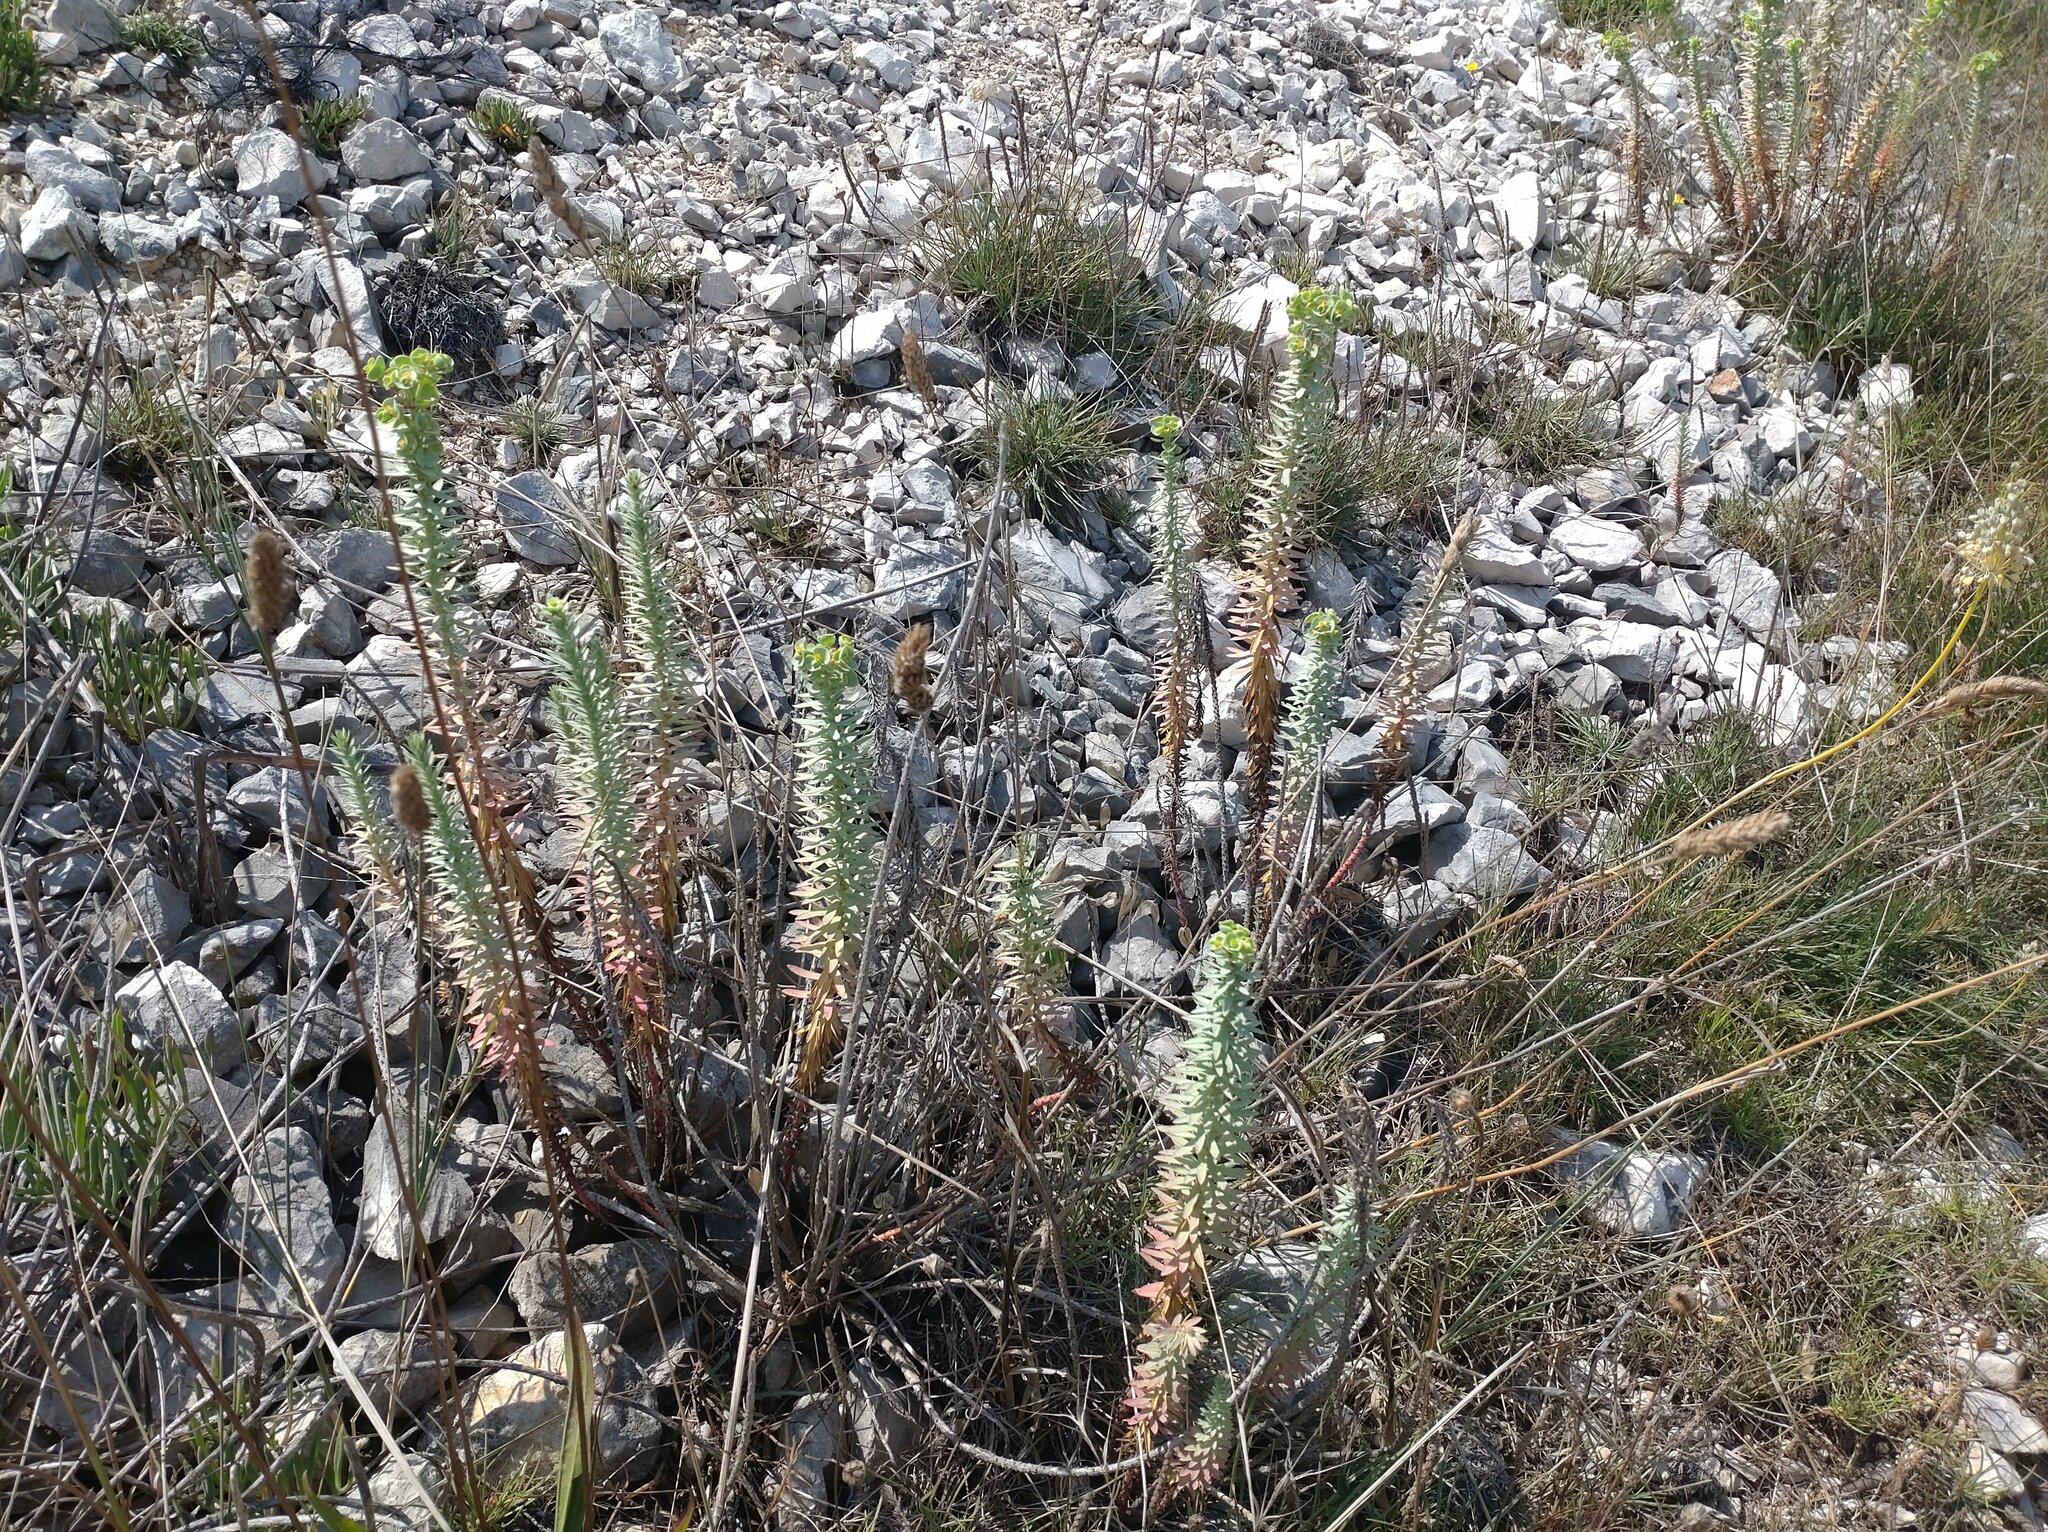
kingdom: Plantae
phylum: Tracheophyta
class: Magnoliopsida
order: Malpighiales
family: Euphorbiaceae
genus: Euphorbia
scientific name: Euphorbia paralias
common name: Sea spurge
